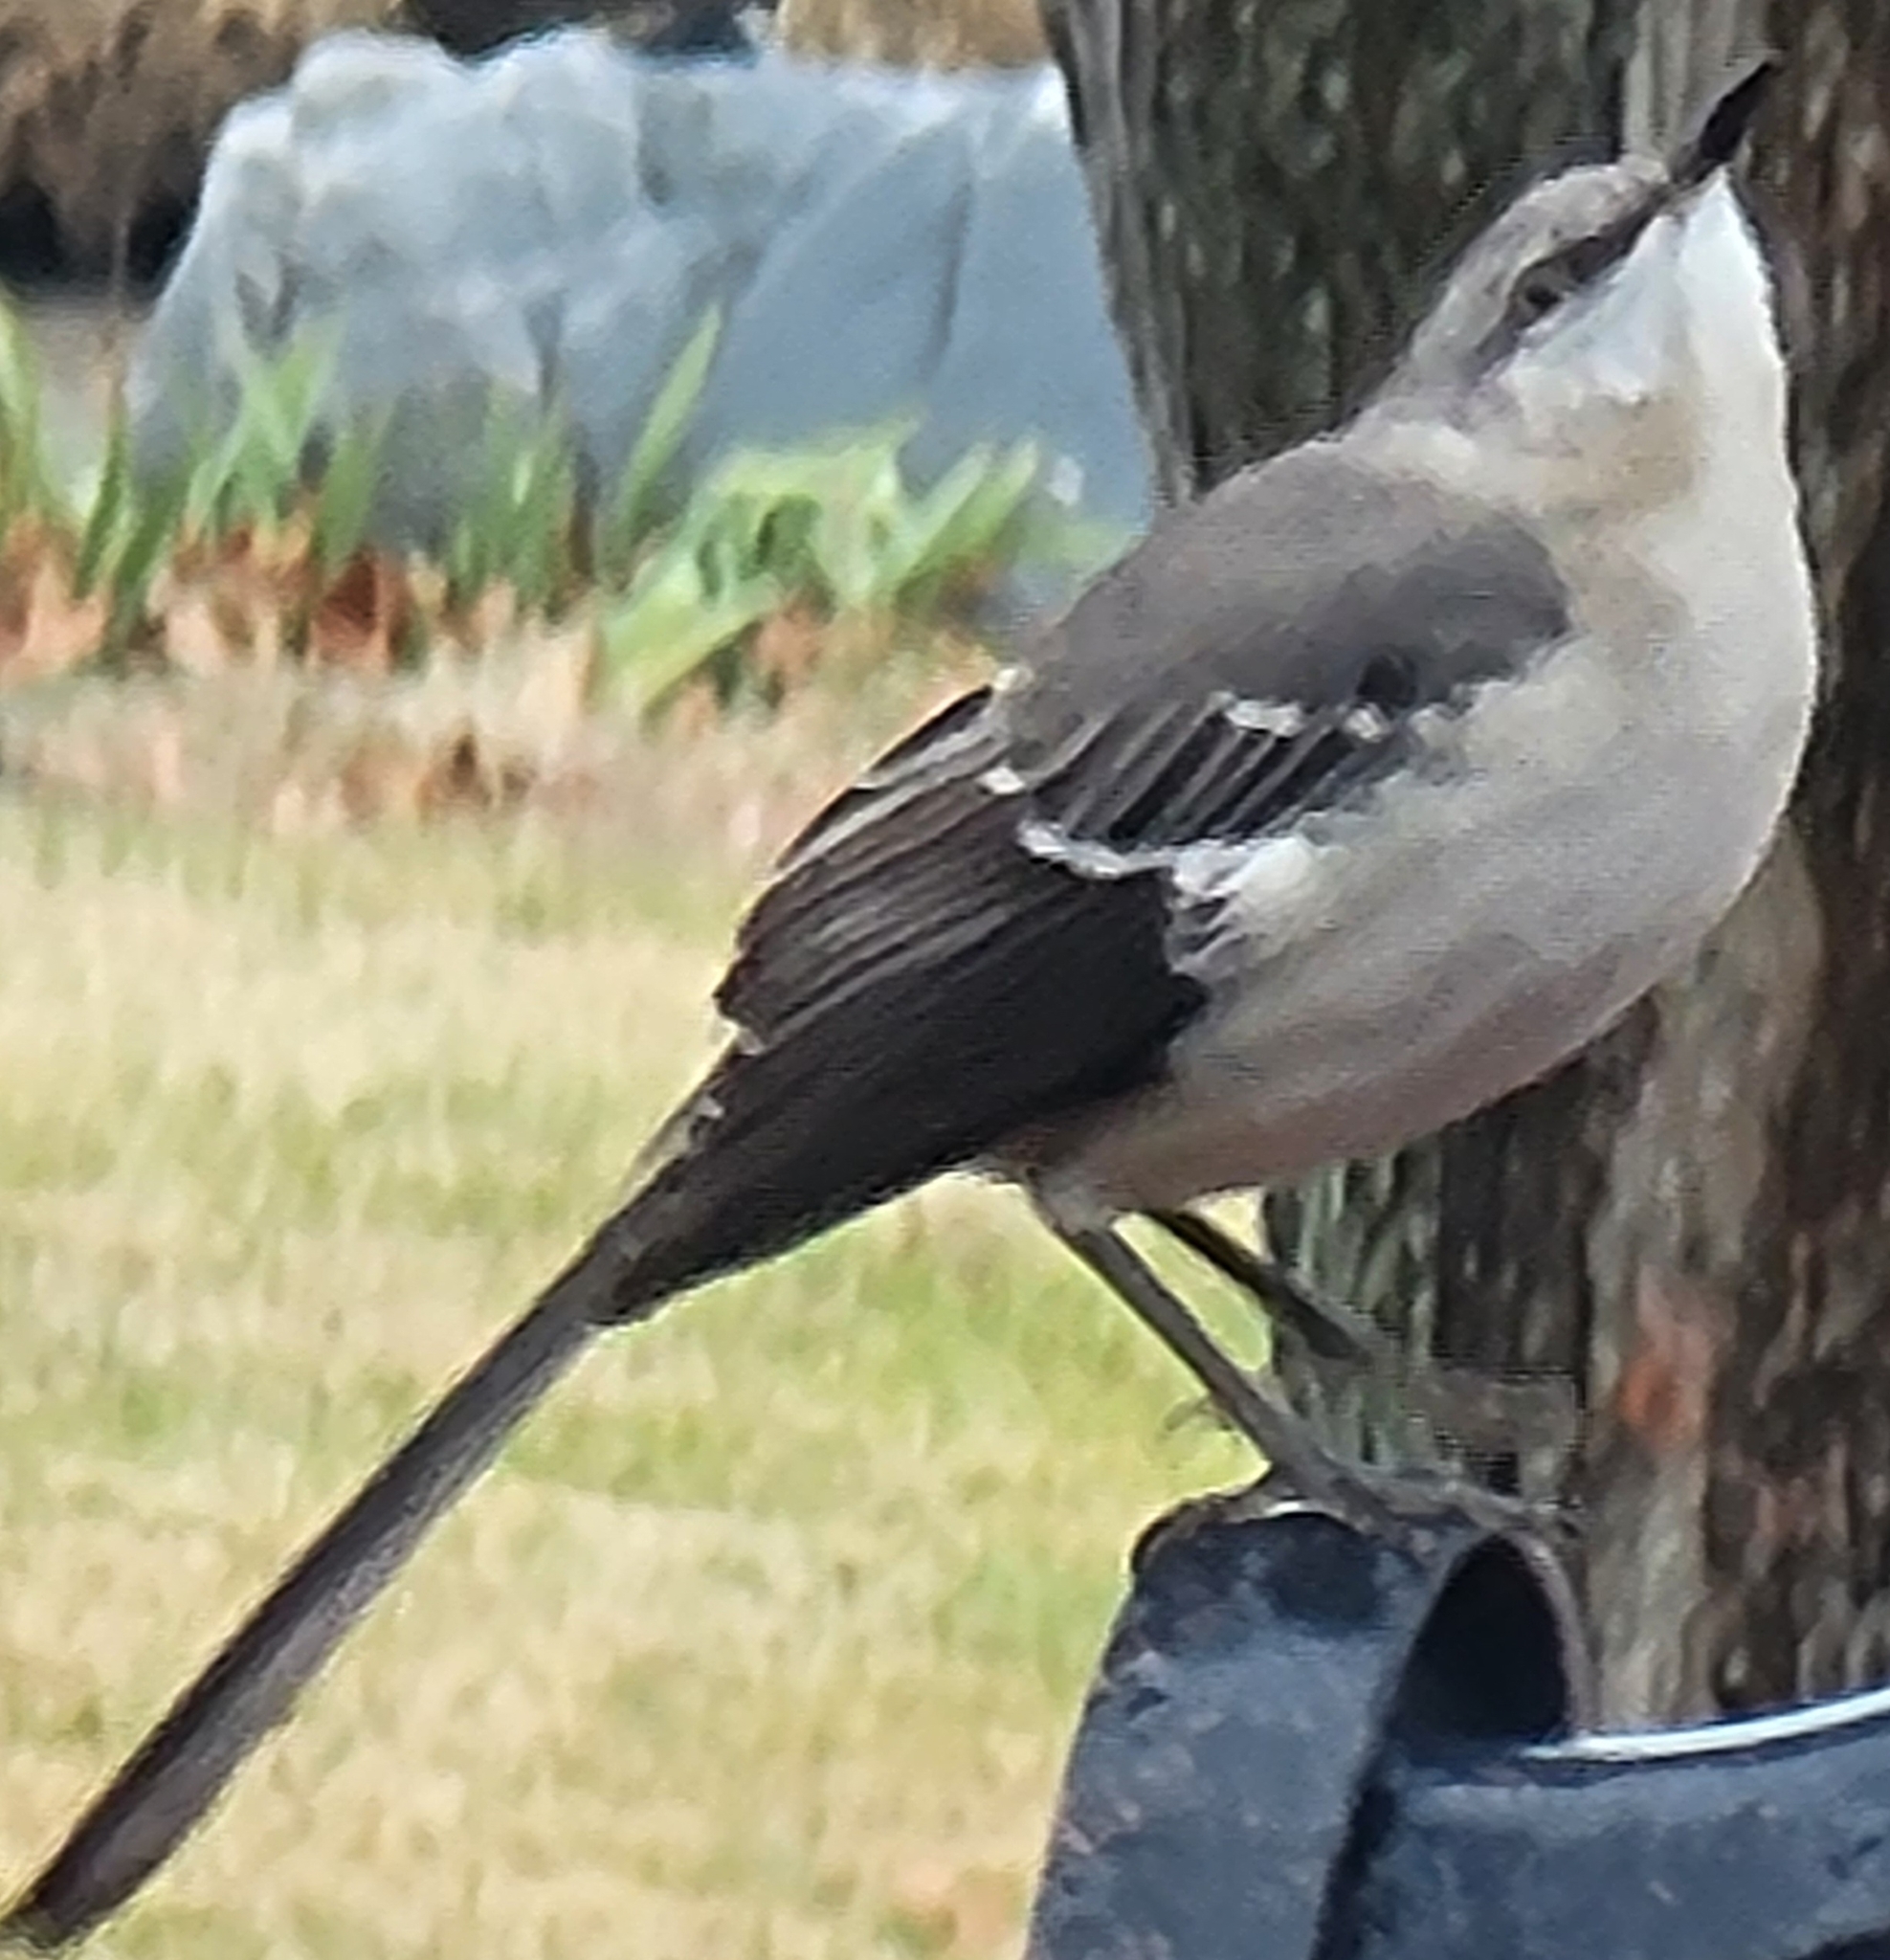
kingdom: Animalia
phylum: Chordata
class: Aves
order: Passeriformes
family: Mimidae
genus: Mimus
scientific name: Mimus polyglottos
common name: Northern mockingbird
